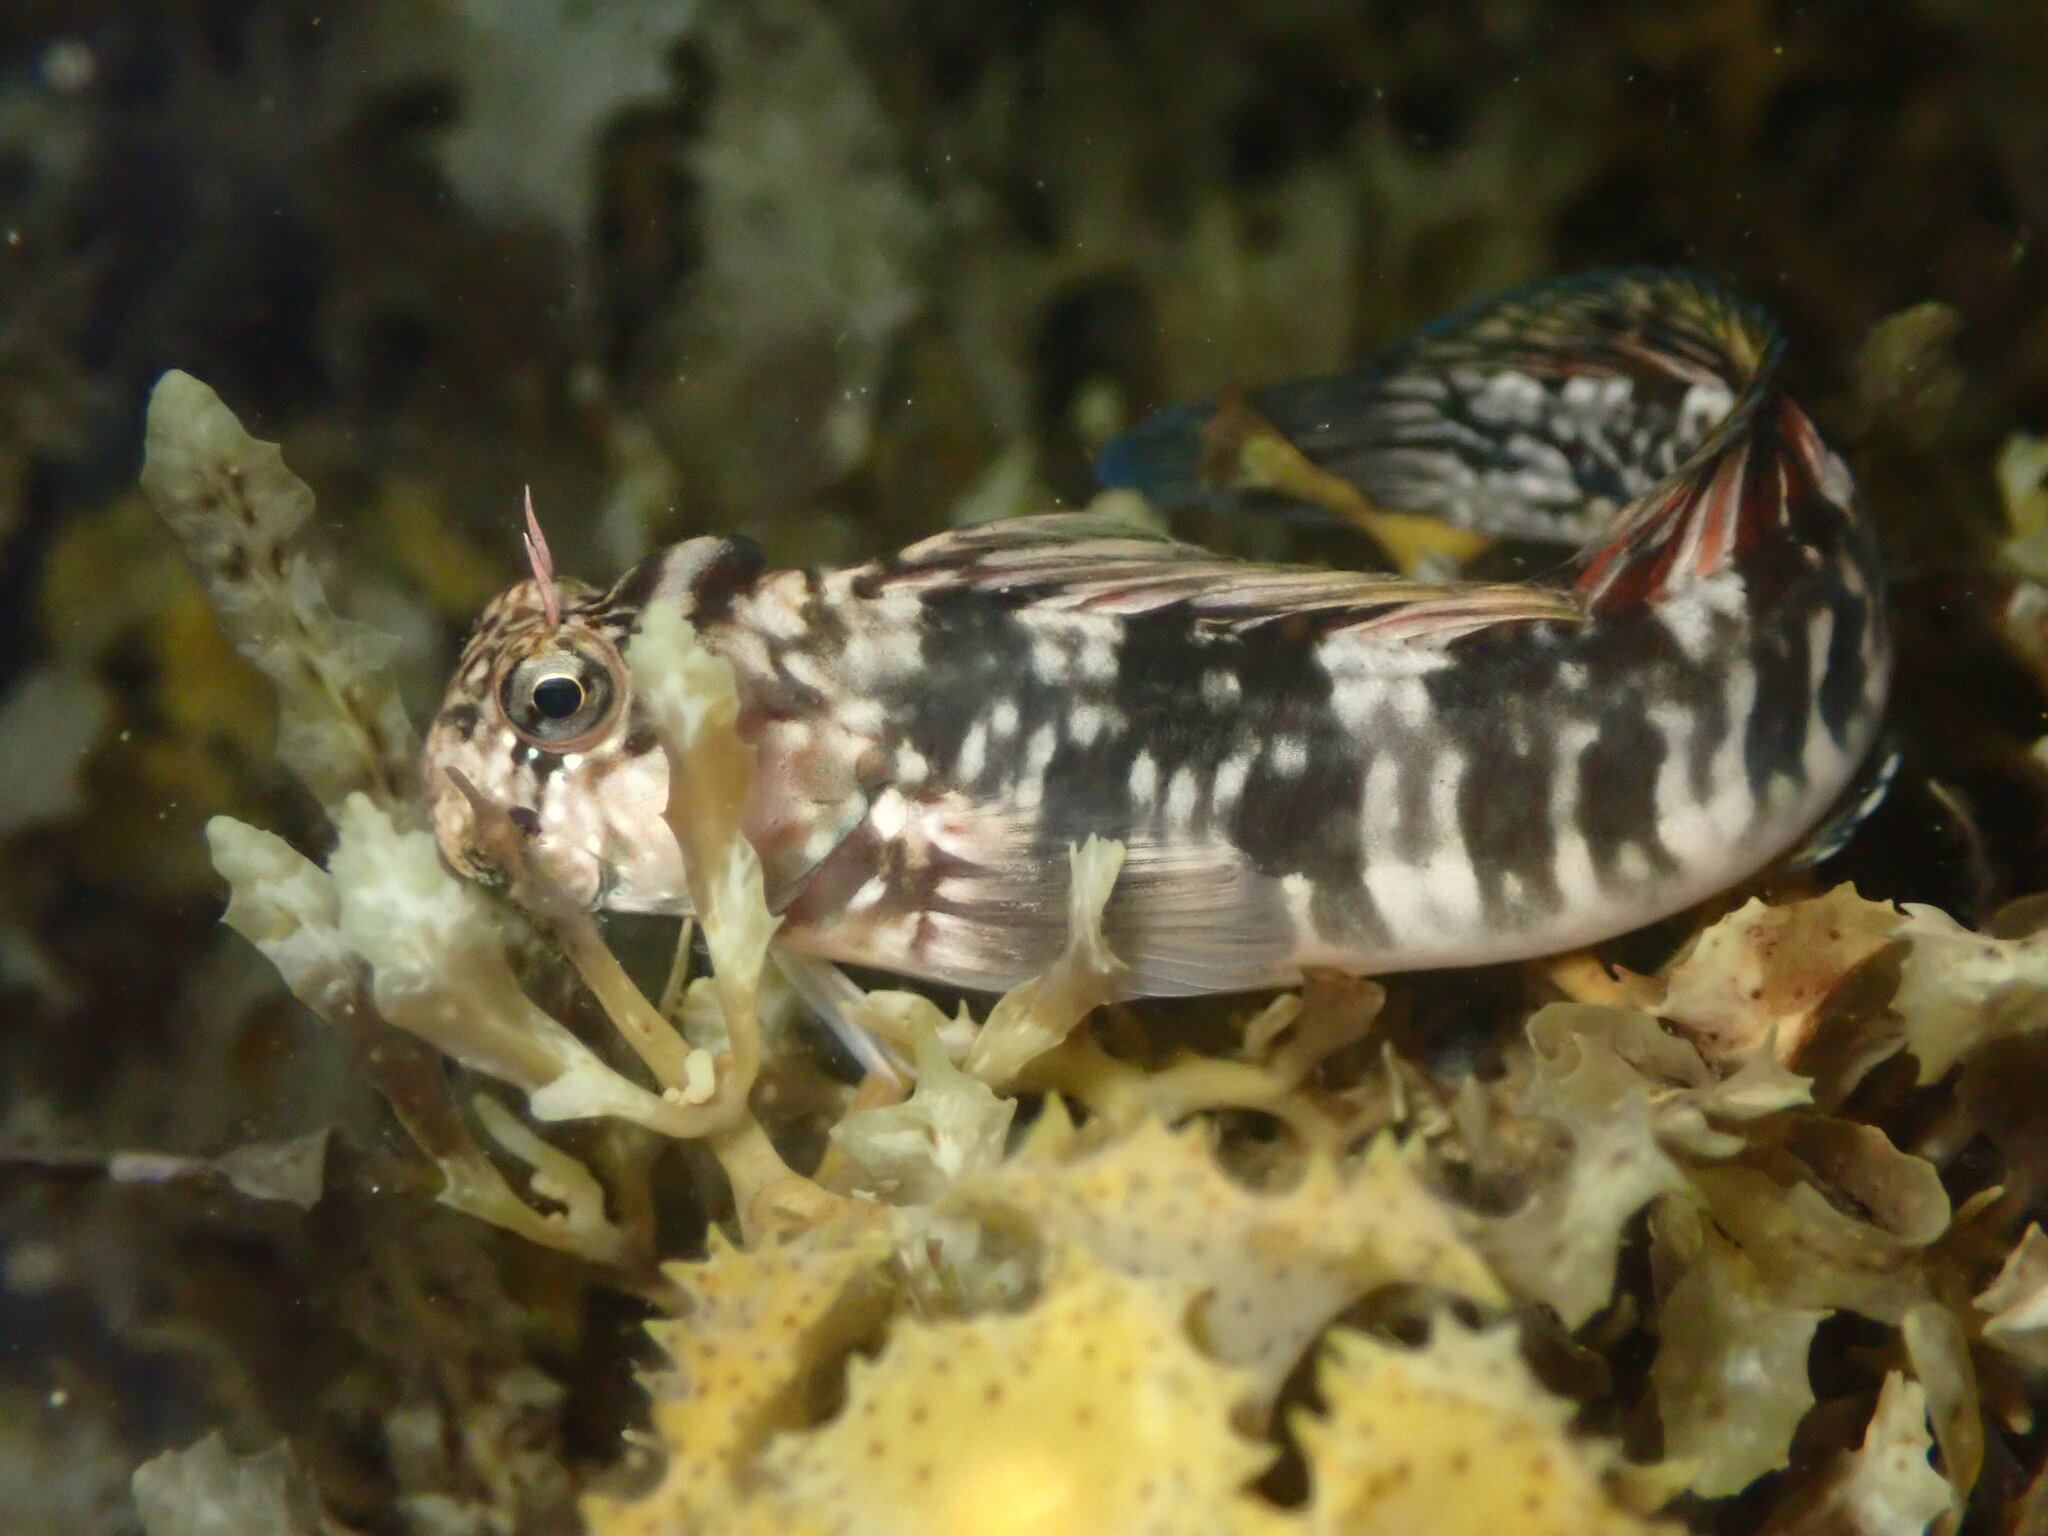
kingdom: Animalia
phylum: Chordata
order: Perciformes
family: Blenniidae
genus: Istiblennius
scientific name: Istiblennius zebra
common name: Zebra blenny
